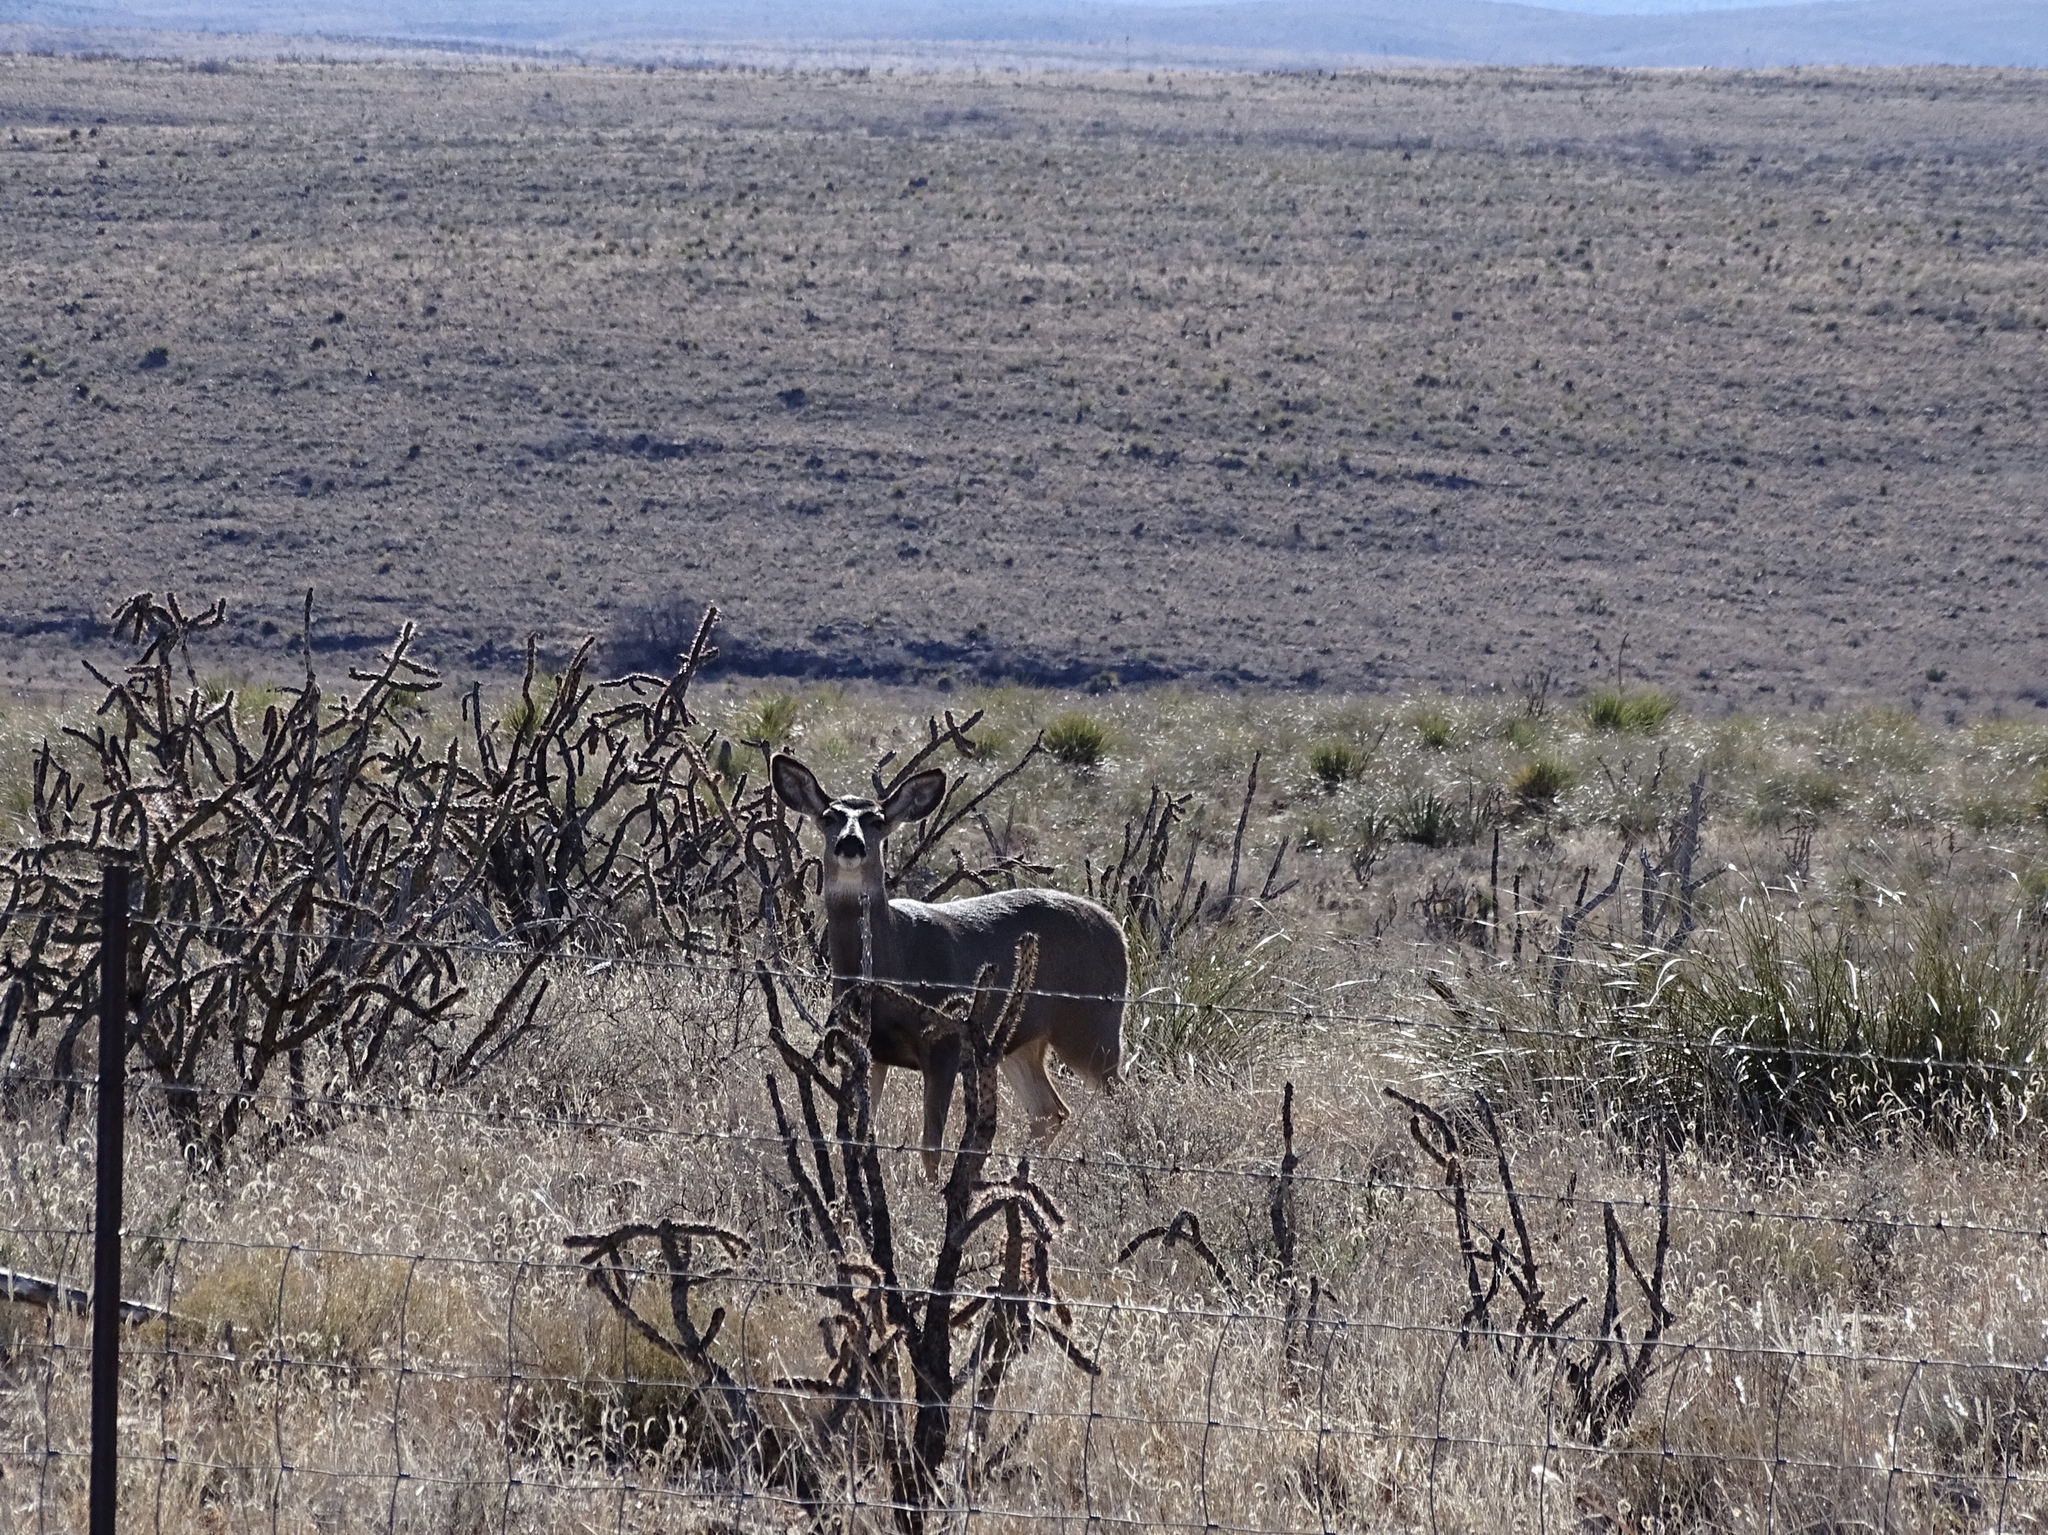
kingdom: Animalia
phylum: Chordata
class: Mammalia
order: Artiodactyla
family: Cervidae
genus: Odocoileus
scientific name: Odocoileus hemionus
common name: Mule deer
